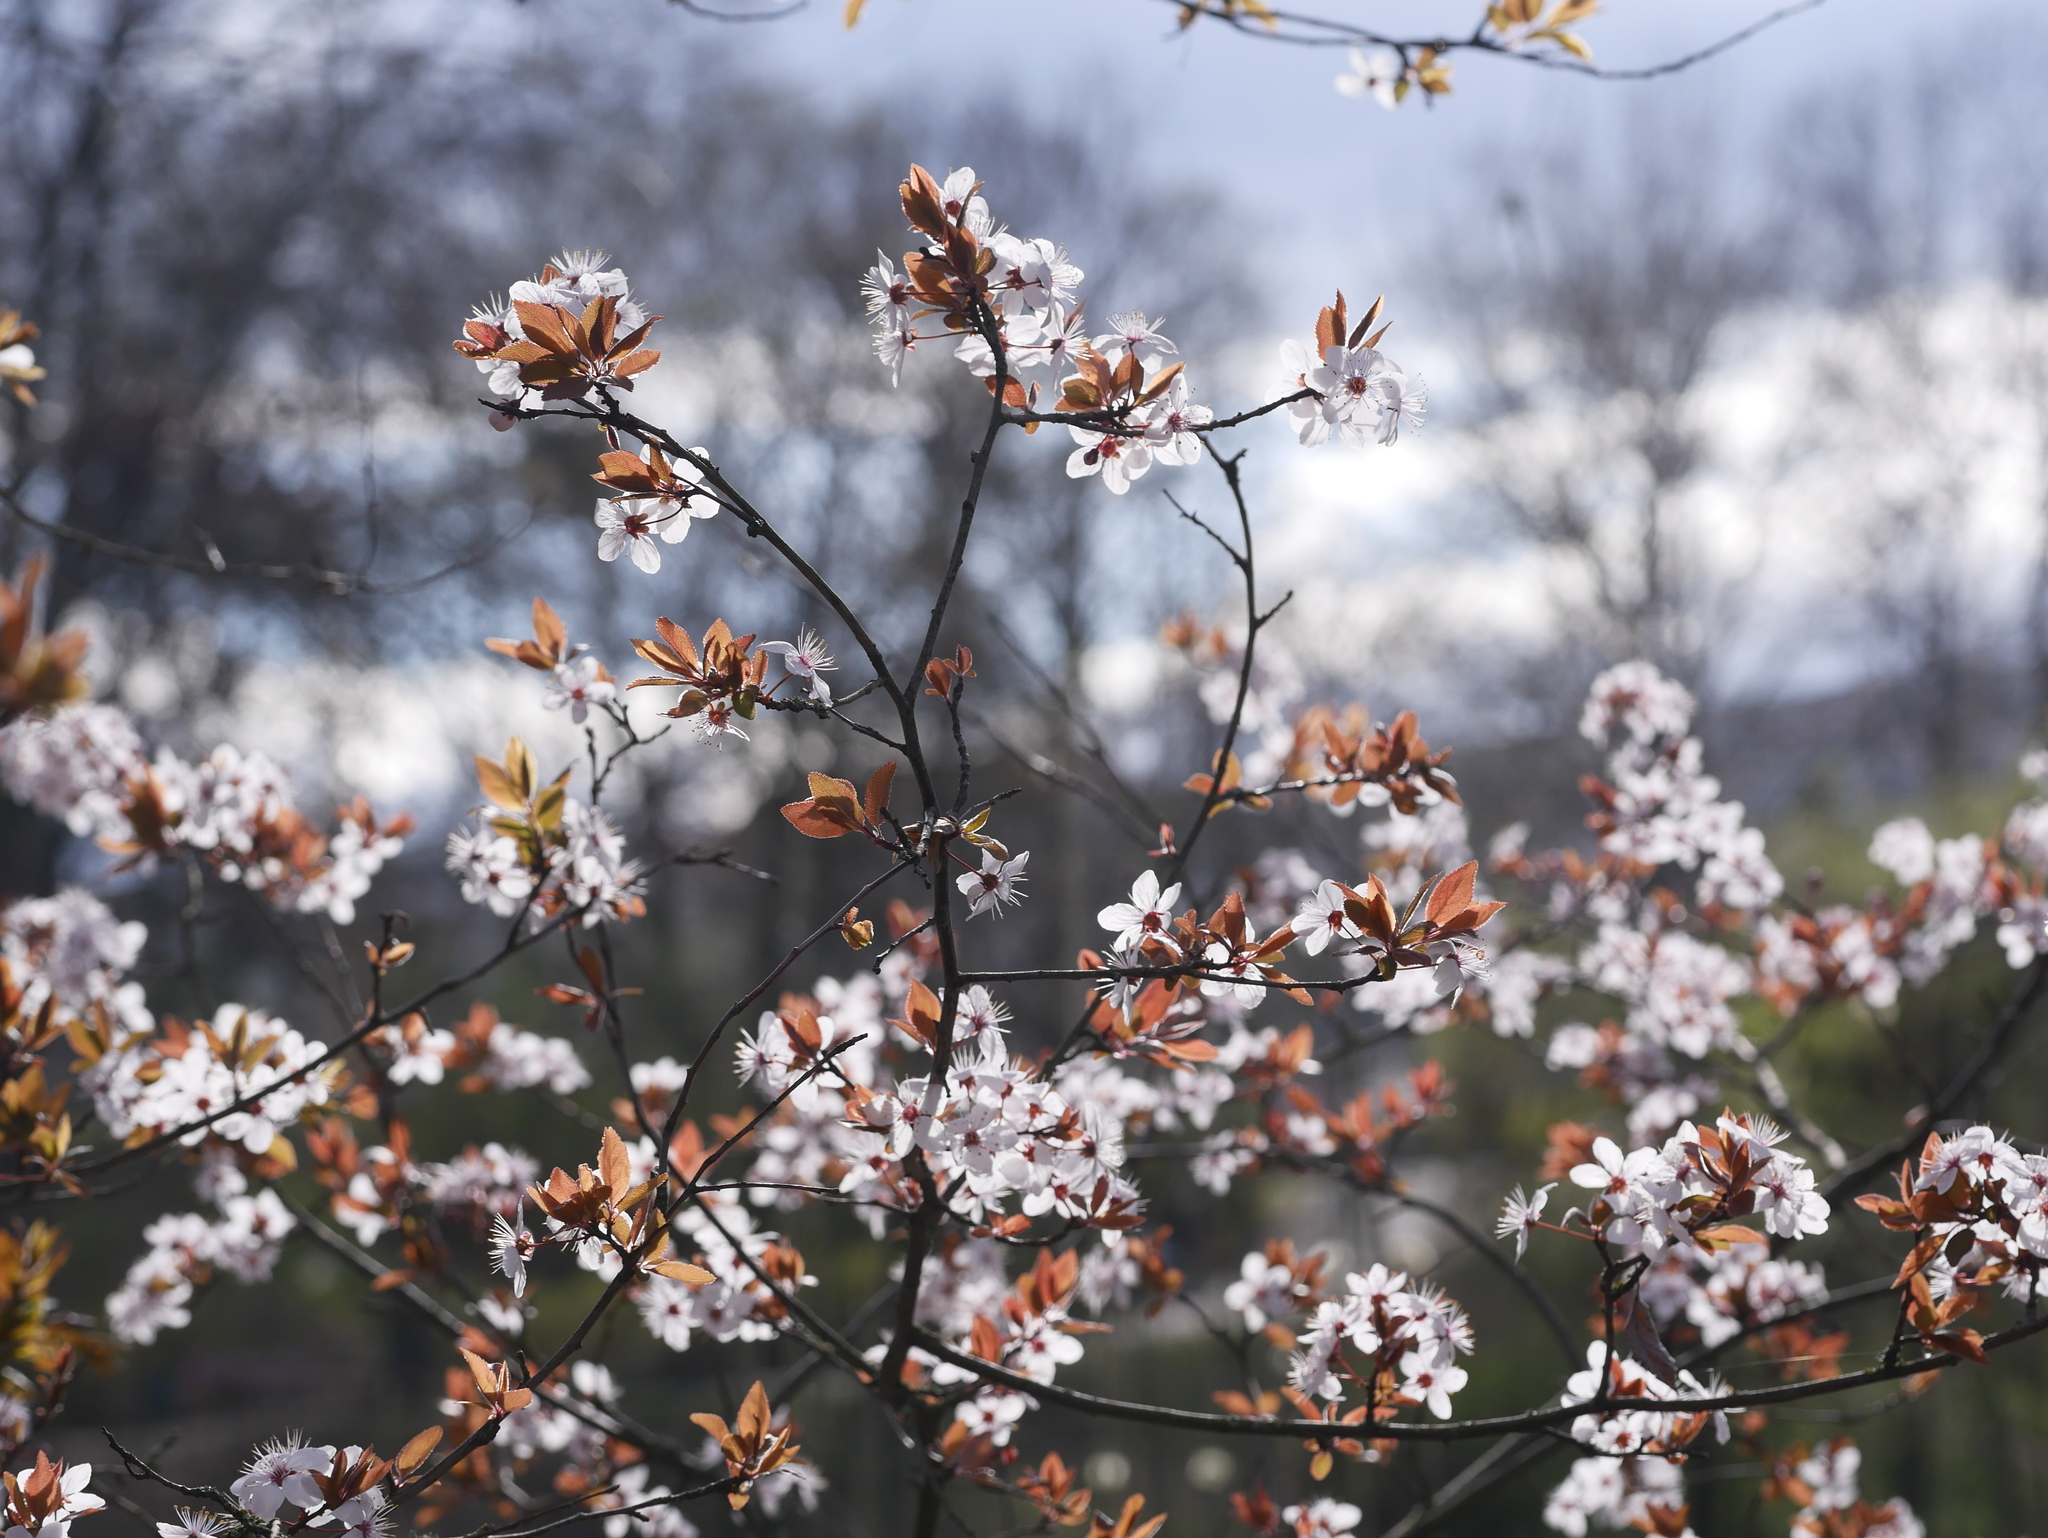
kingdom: Plantae
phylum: Tracheophyta
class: Magnoliopsida
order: Rosales
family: Rosaceae
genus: Prunus
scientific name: Prunus cerasifera
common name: Cherry plum
